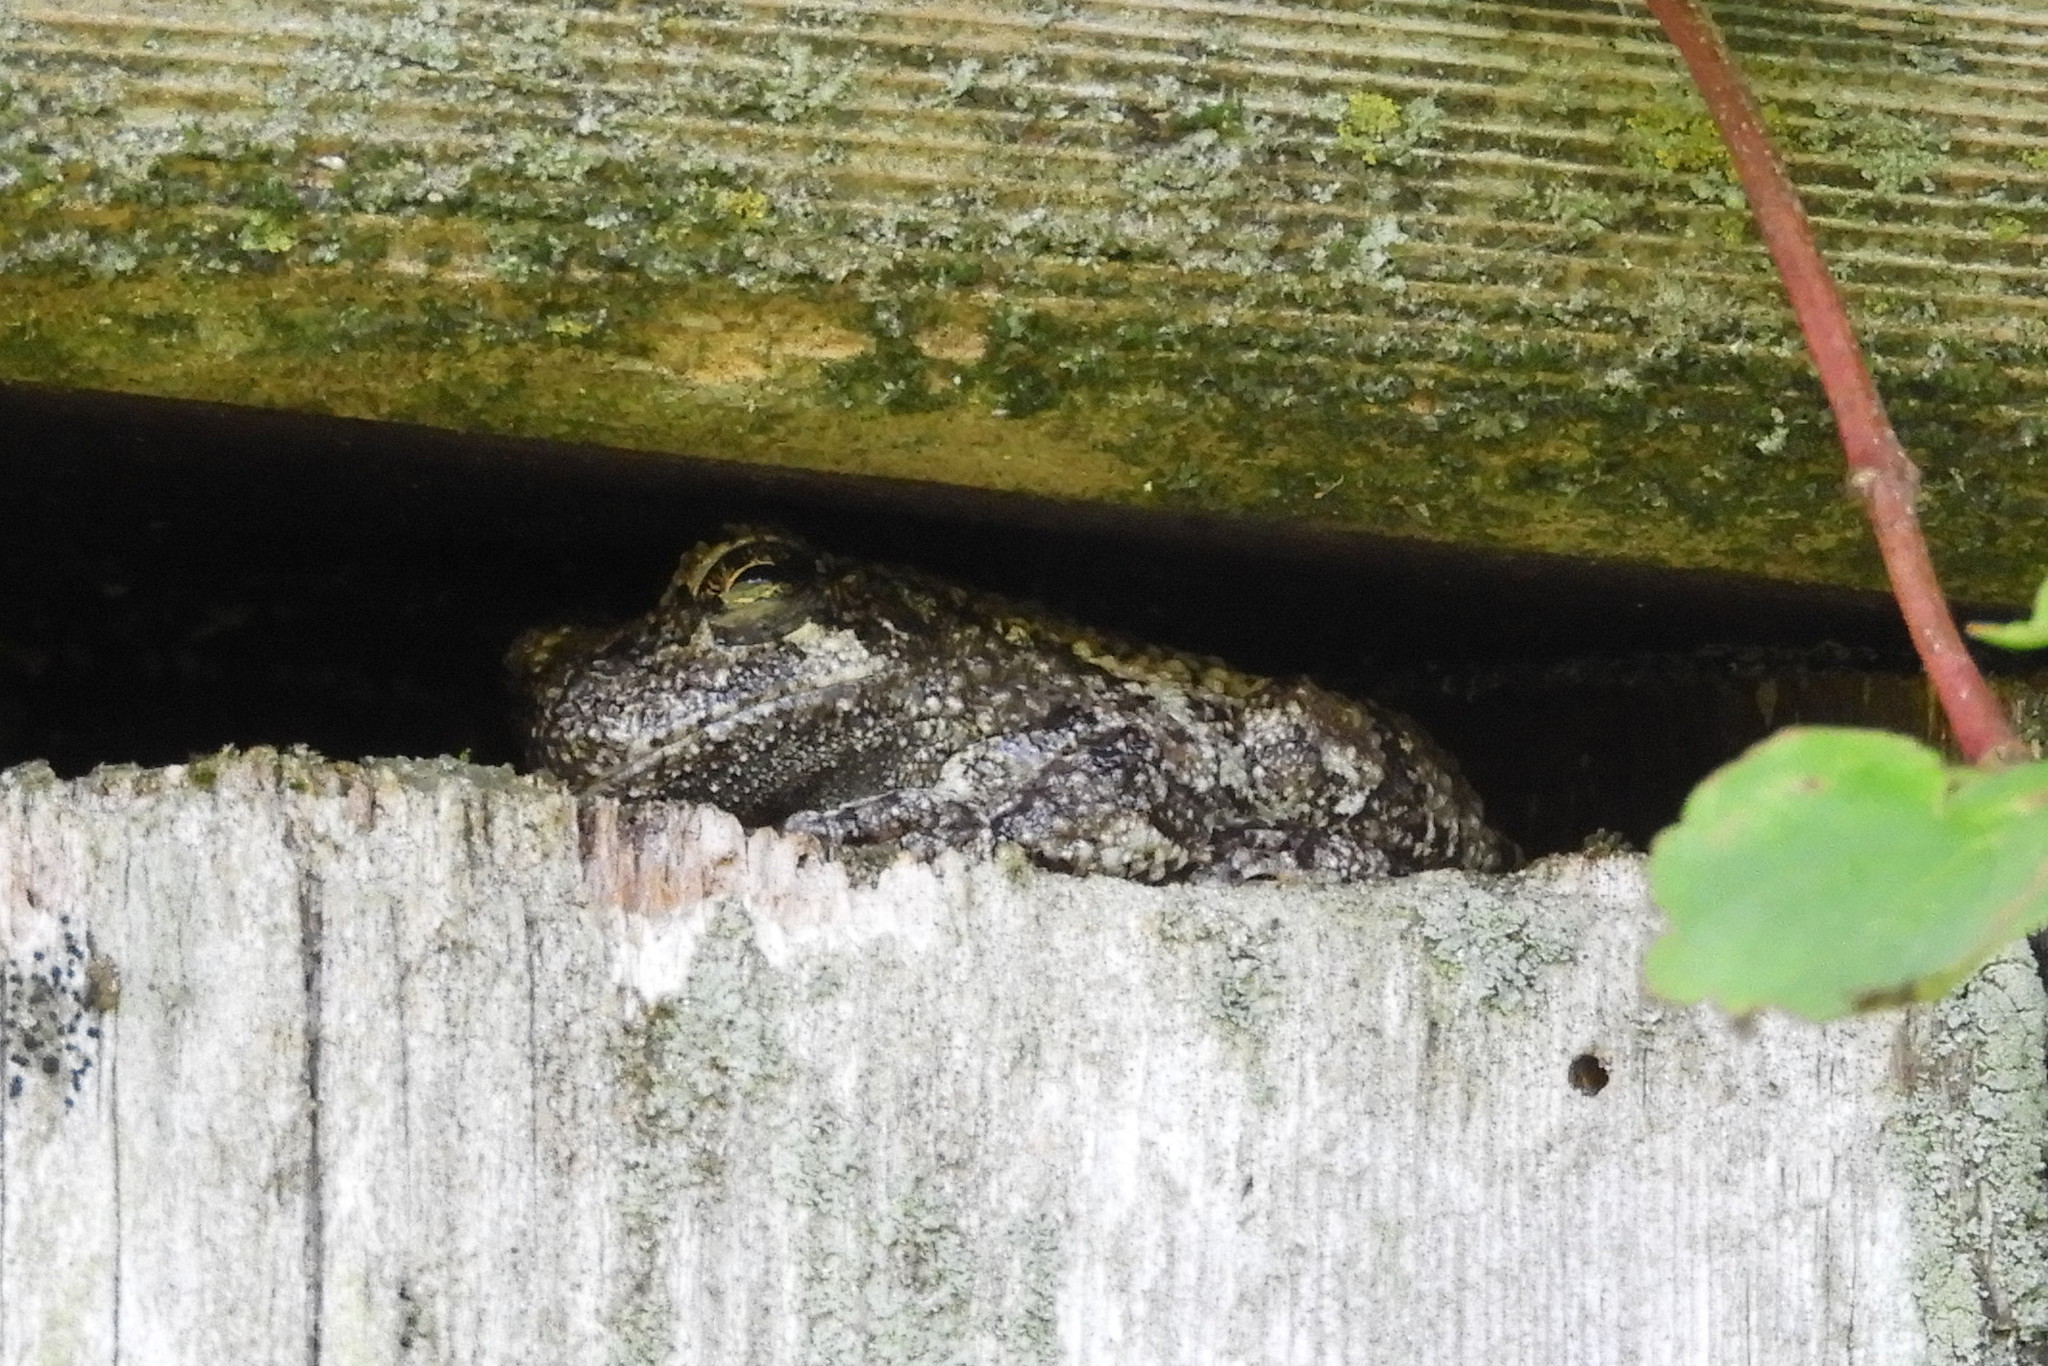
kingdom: Animalia
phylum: Chordata
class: Amphibia
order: Anura
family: Hylidae
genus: Hyla
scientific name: Hyla
